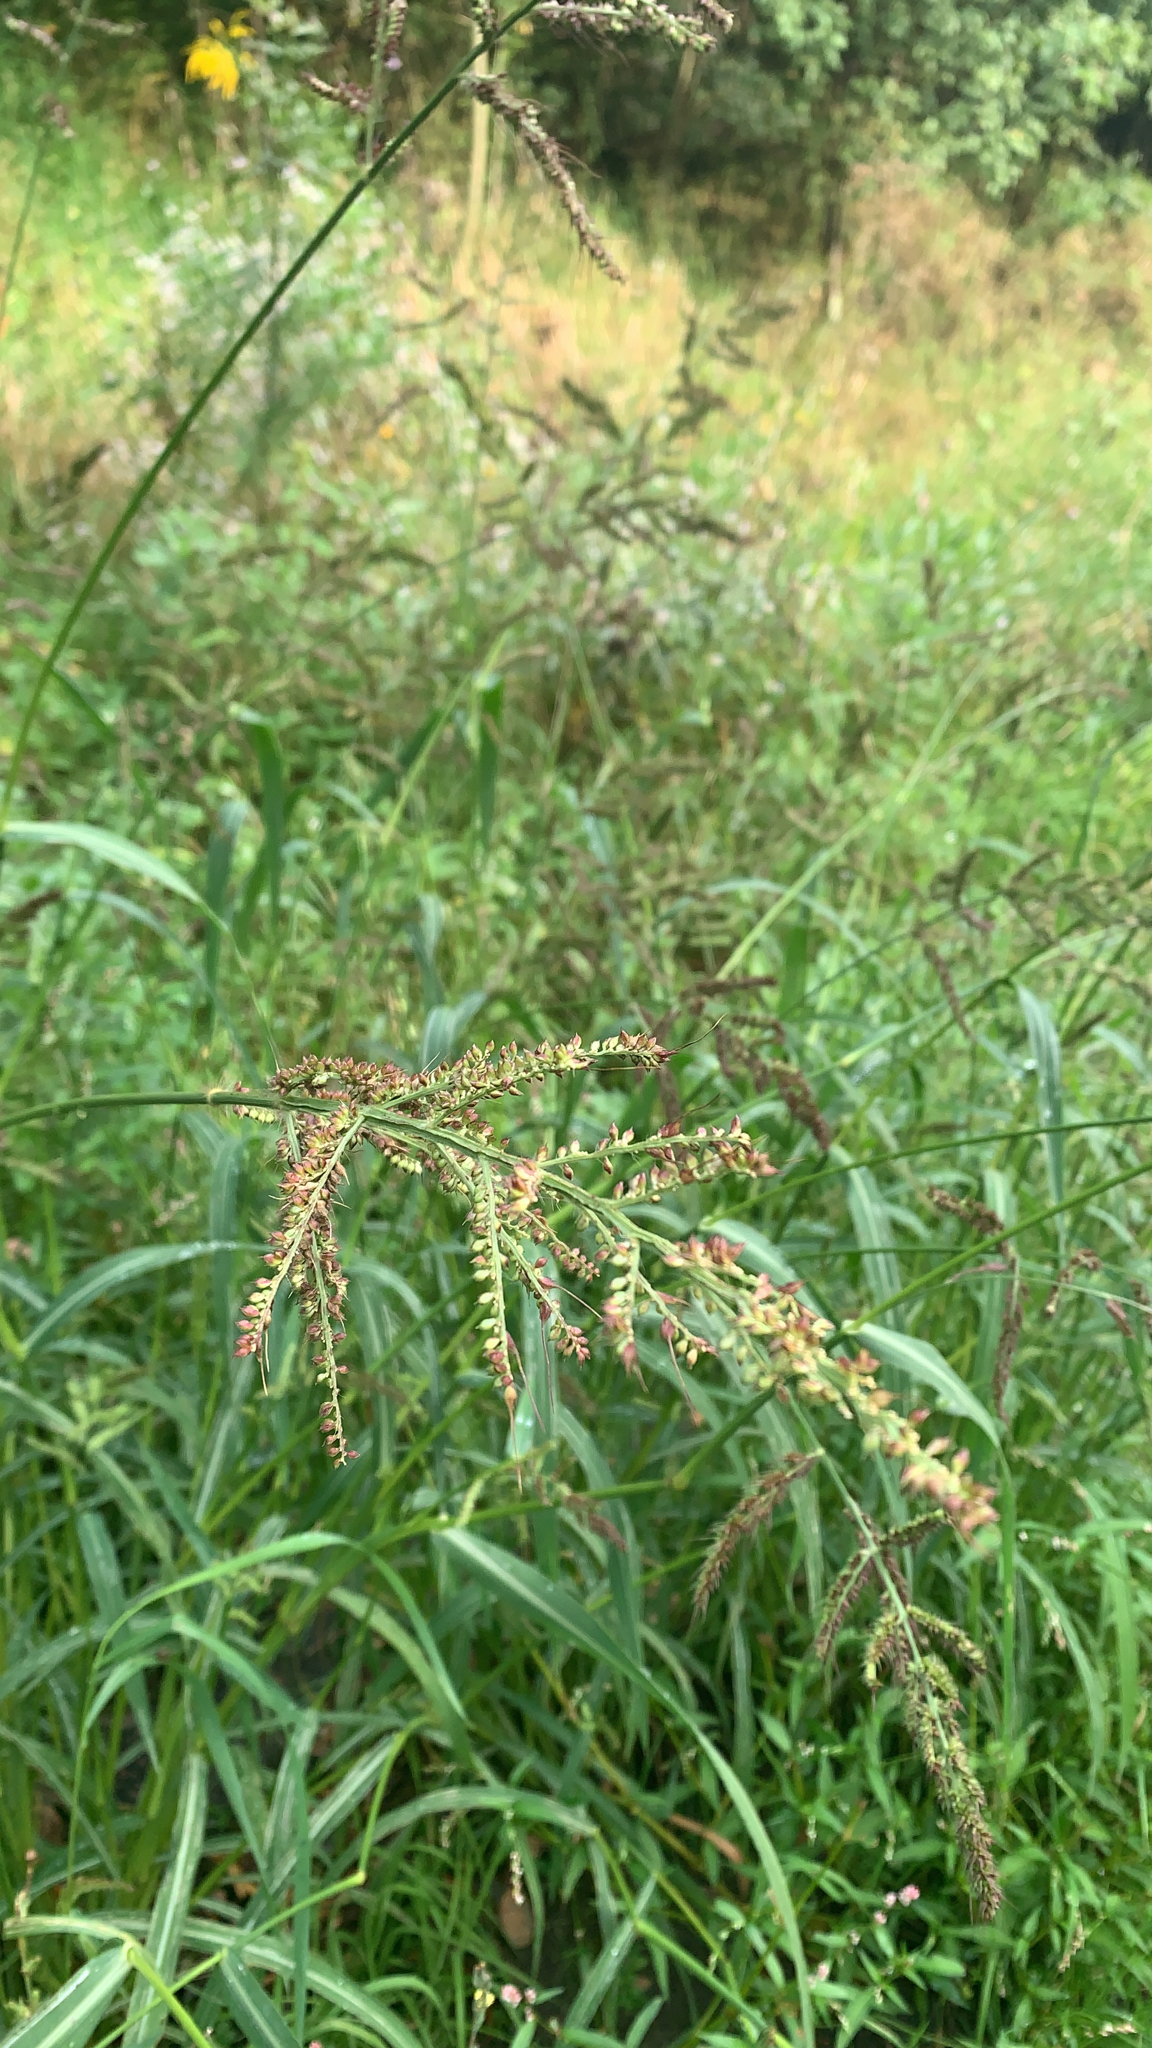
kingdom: Plantae
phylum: Tracheophyta
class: Liliopsida
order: Poales
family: Poaceae
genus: Echinochloa
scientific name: Echinochloa crus-galli
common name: Cockspur
